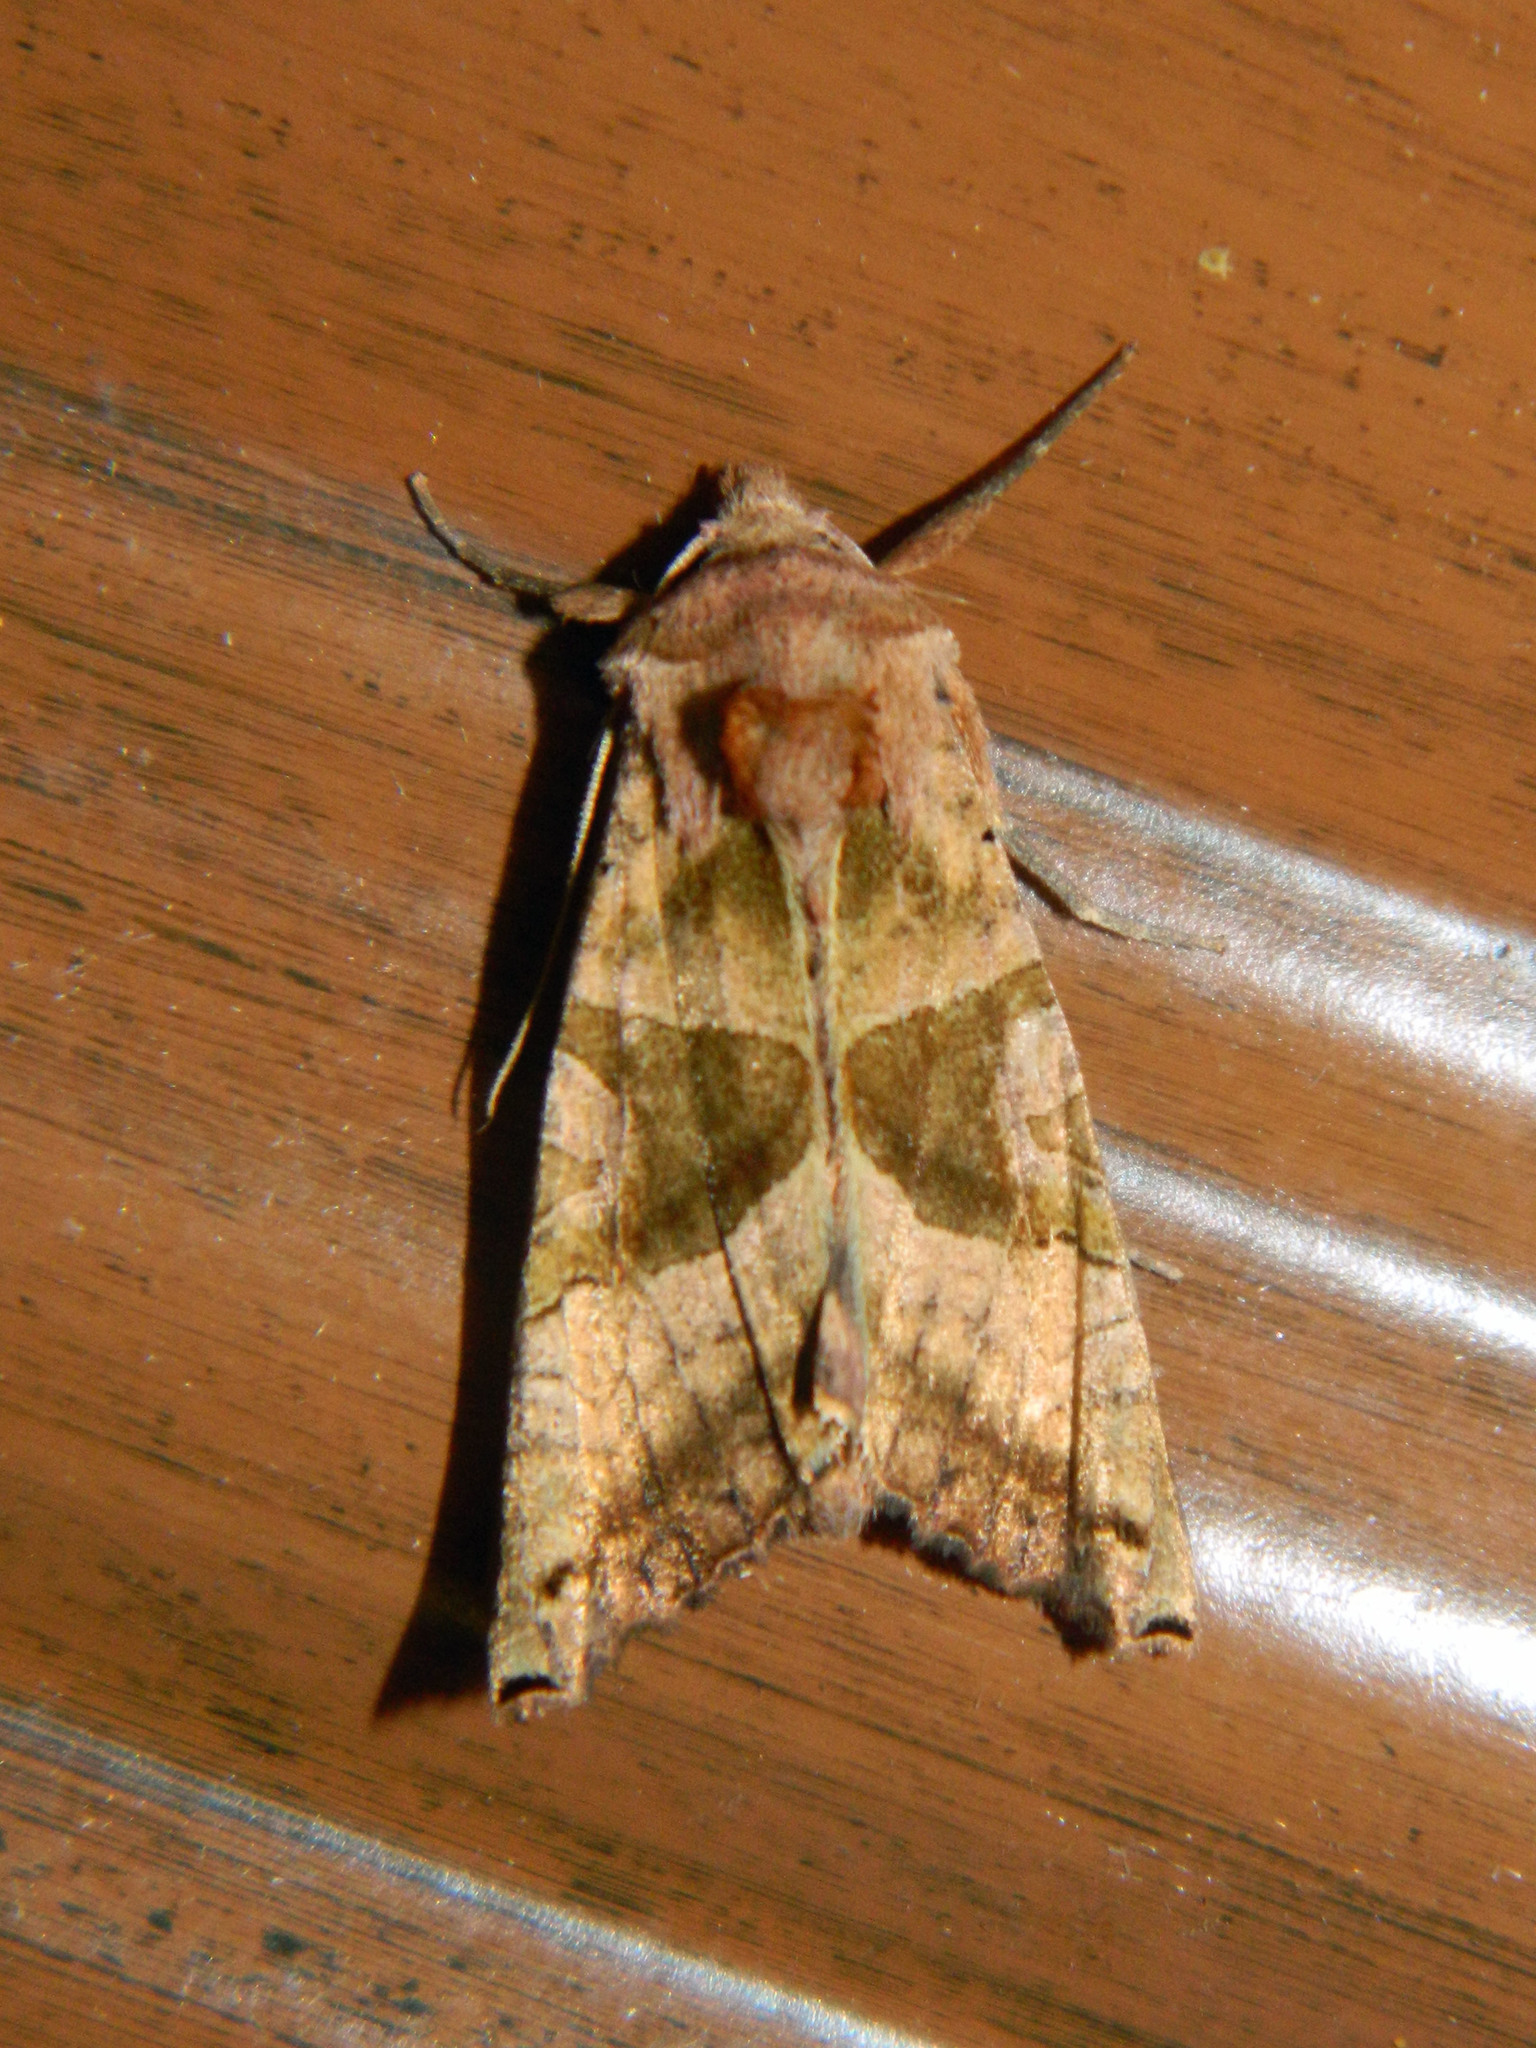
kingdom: Animalia
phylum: Arthropoda
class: Insecta
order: Lepidoptera
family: Noctuidae
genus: Phlogophora
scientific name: Phlogophora periculosa
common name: Brown angle shades
